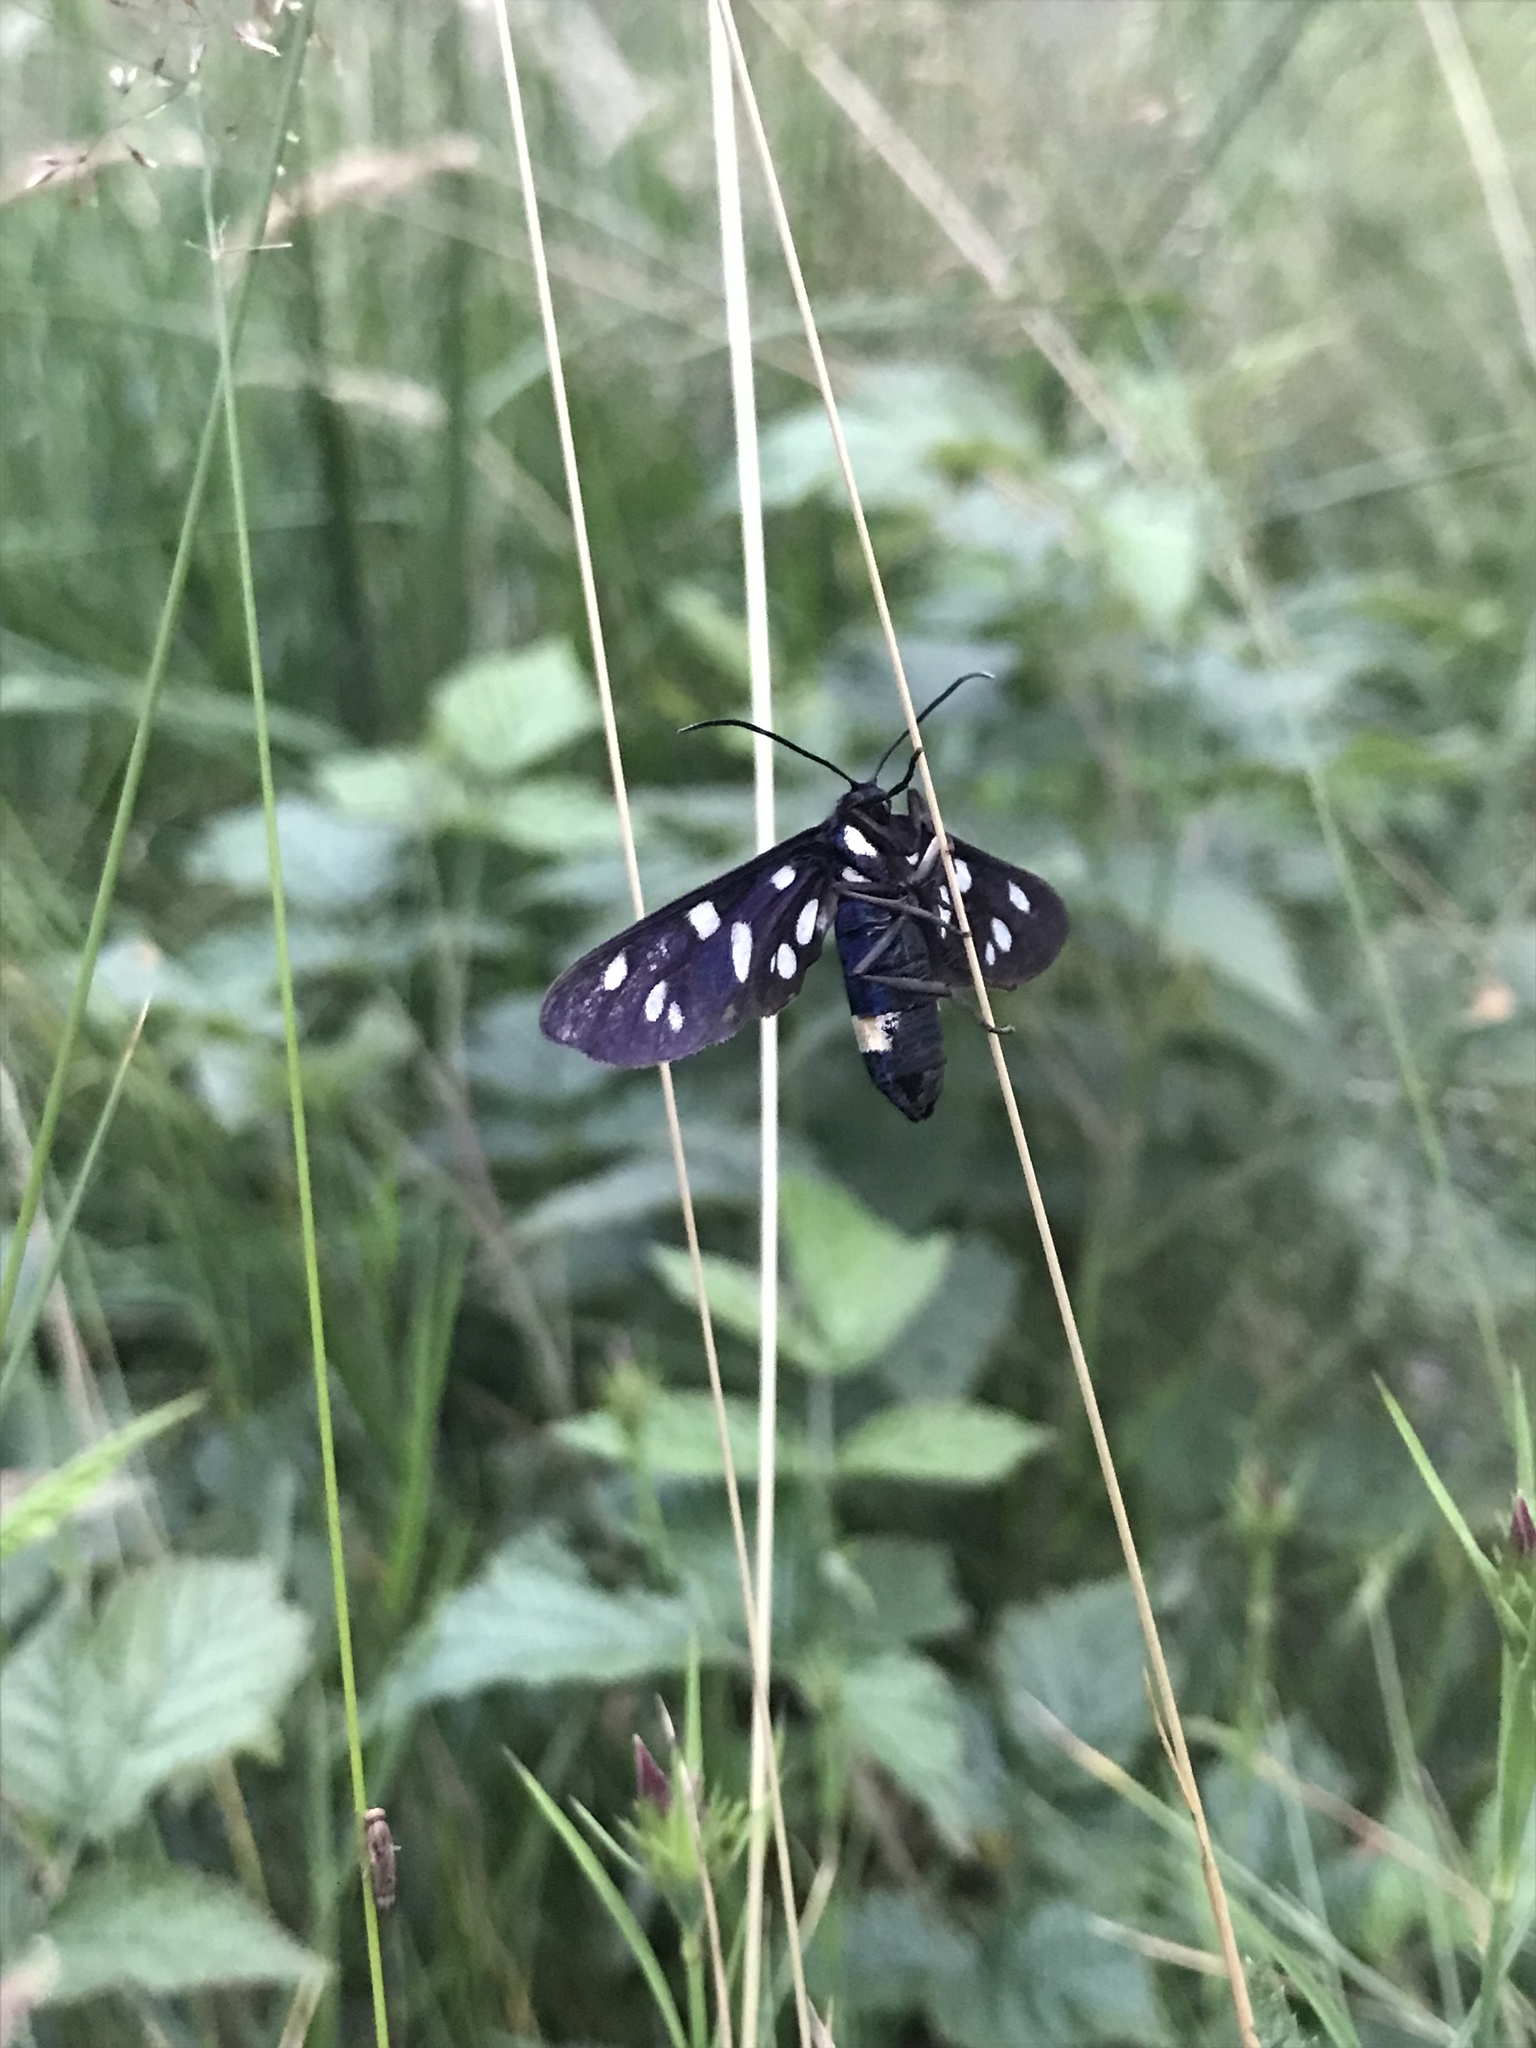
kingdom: Animalia
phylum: Arthropoda
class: Insecta
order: Lepidoptera
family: Erebidae
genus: Amata
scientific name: Amata phegea
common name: Nine-spotted
